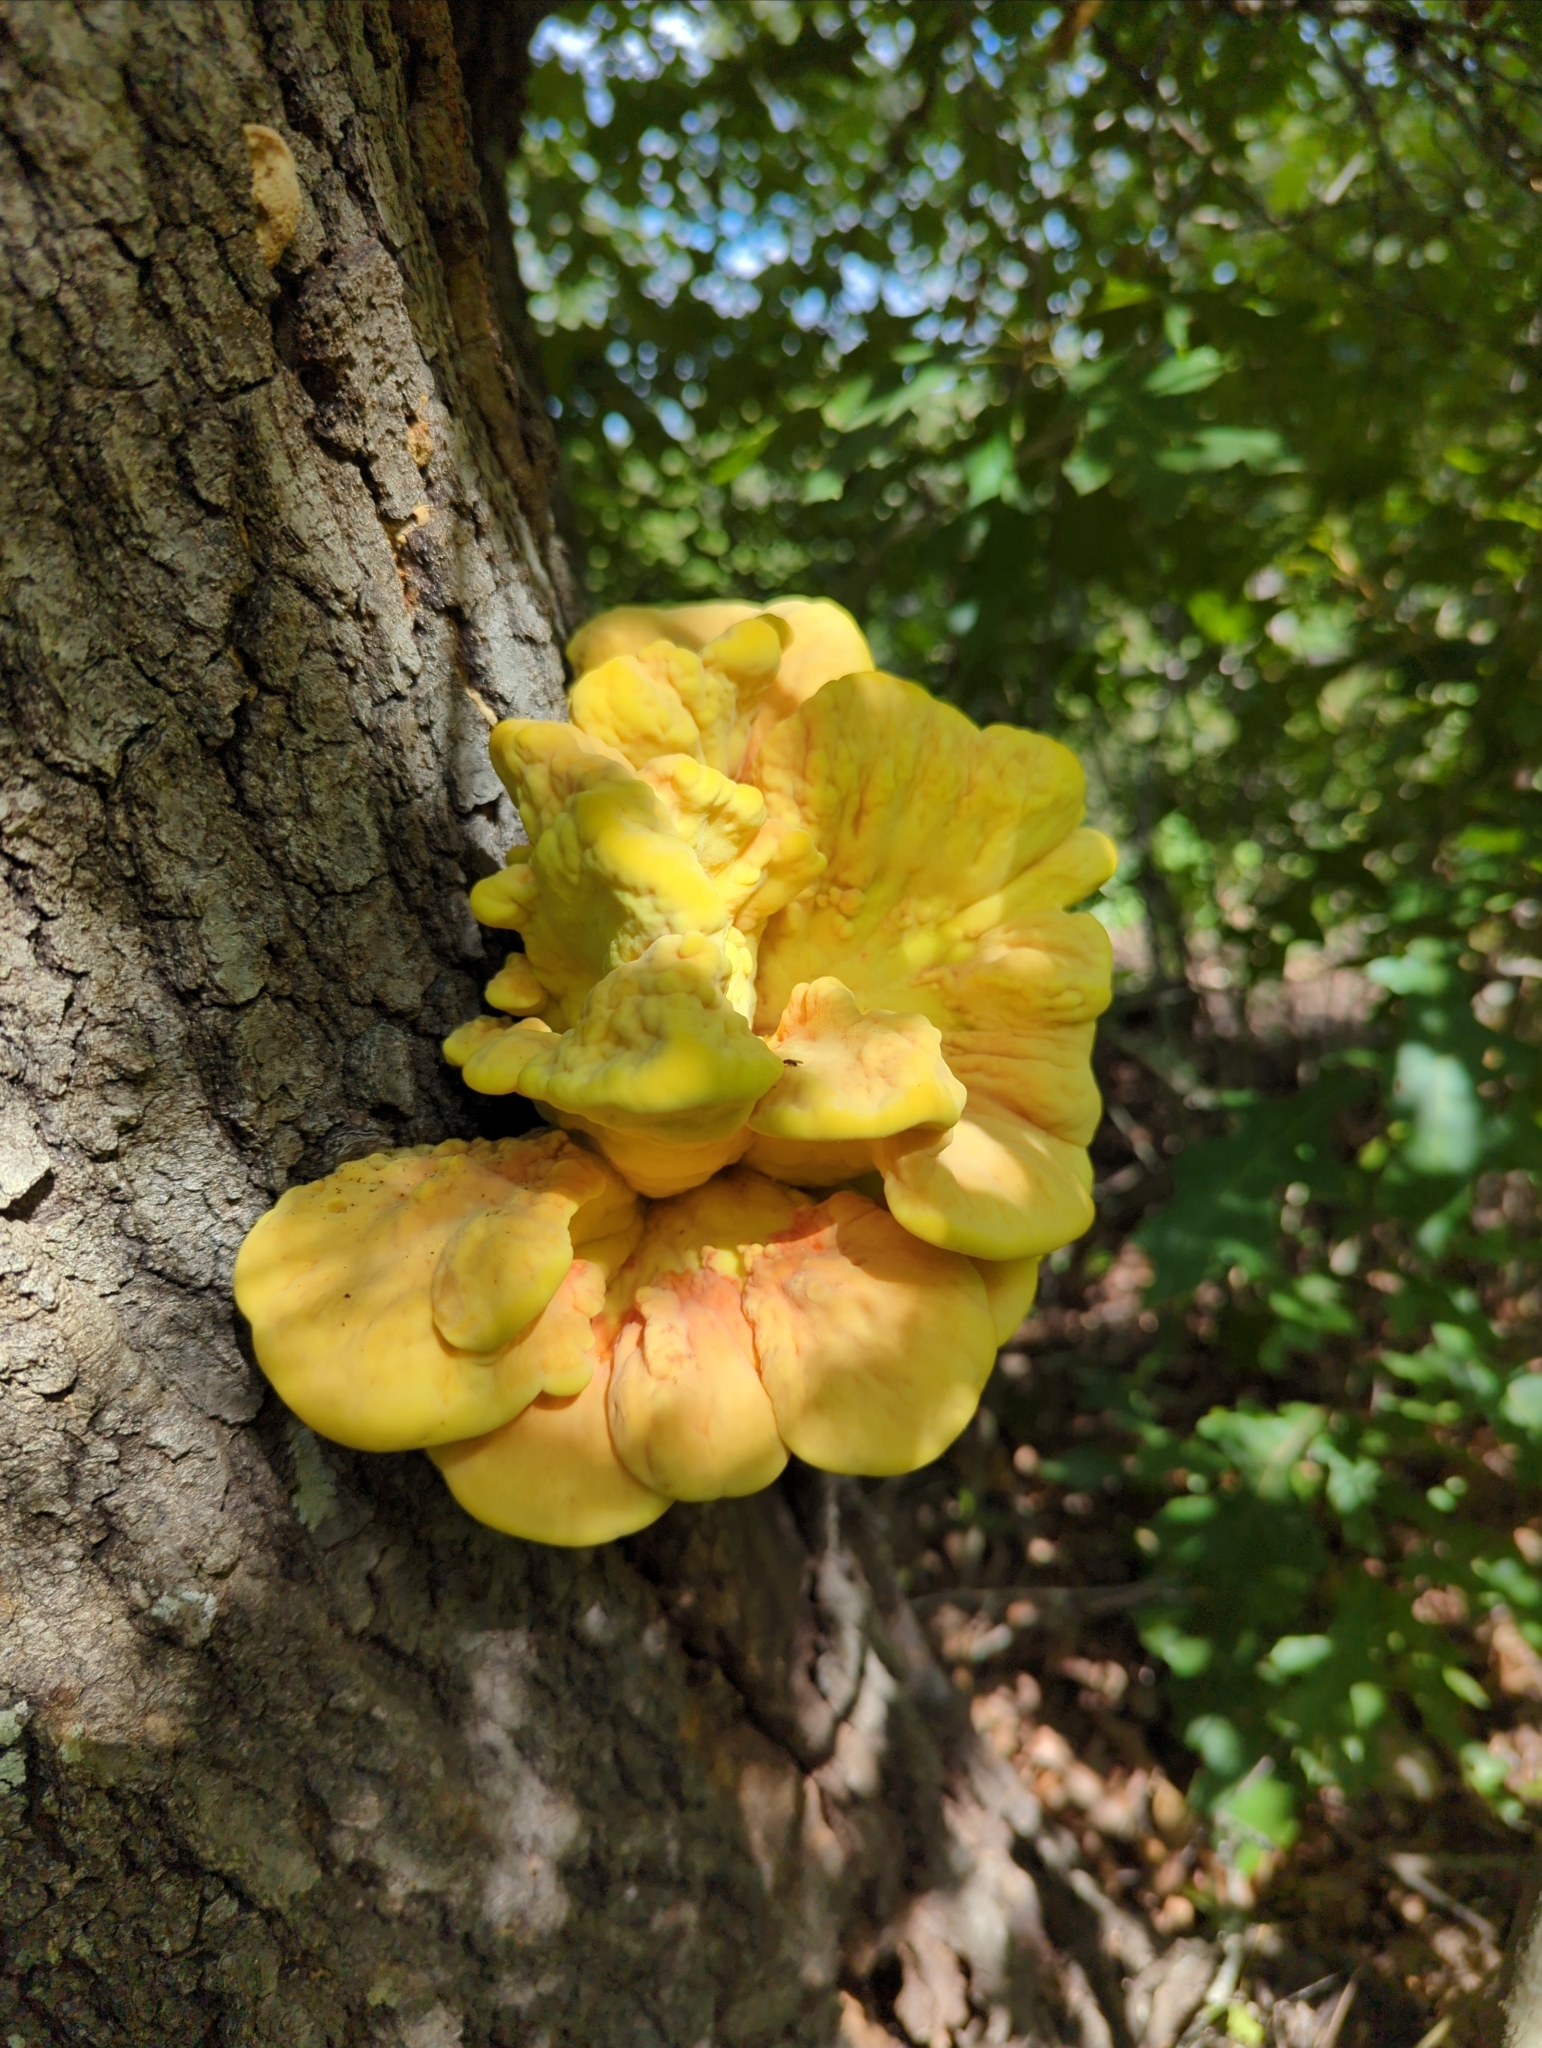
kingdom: Fungi
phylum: Basidiomycota
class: Agaricomycetes
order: Polyporales
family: Laetiporaceae
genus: Laetiporus
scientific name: Laetiporus sulphureus
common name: Chicken of the woods
